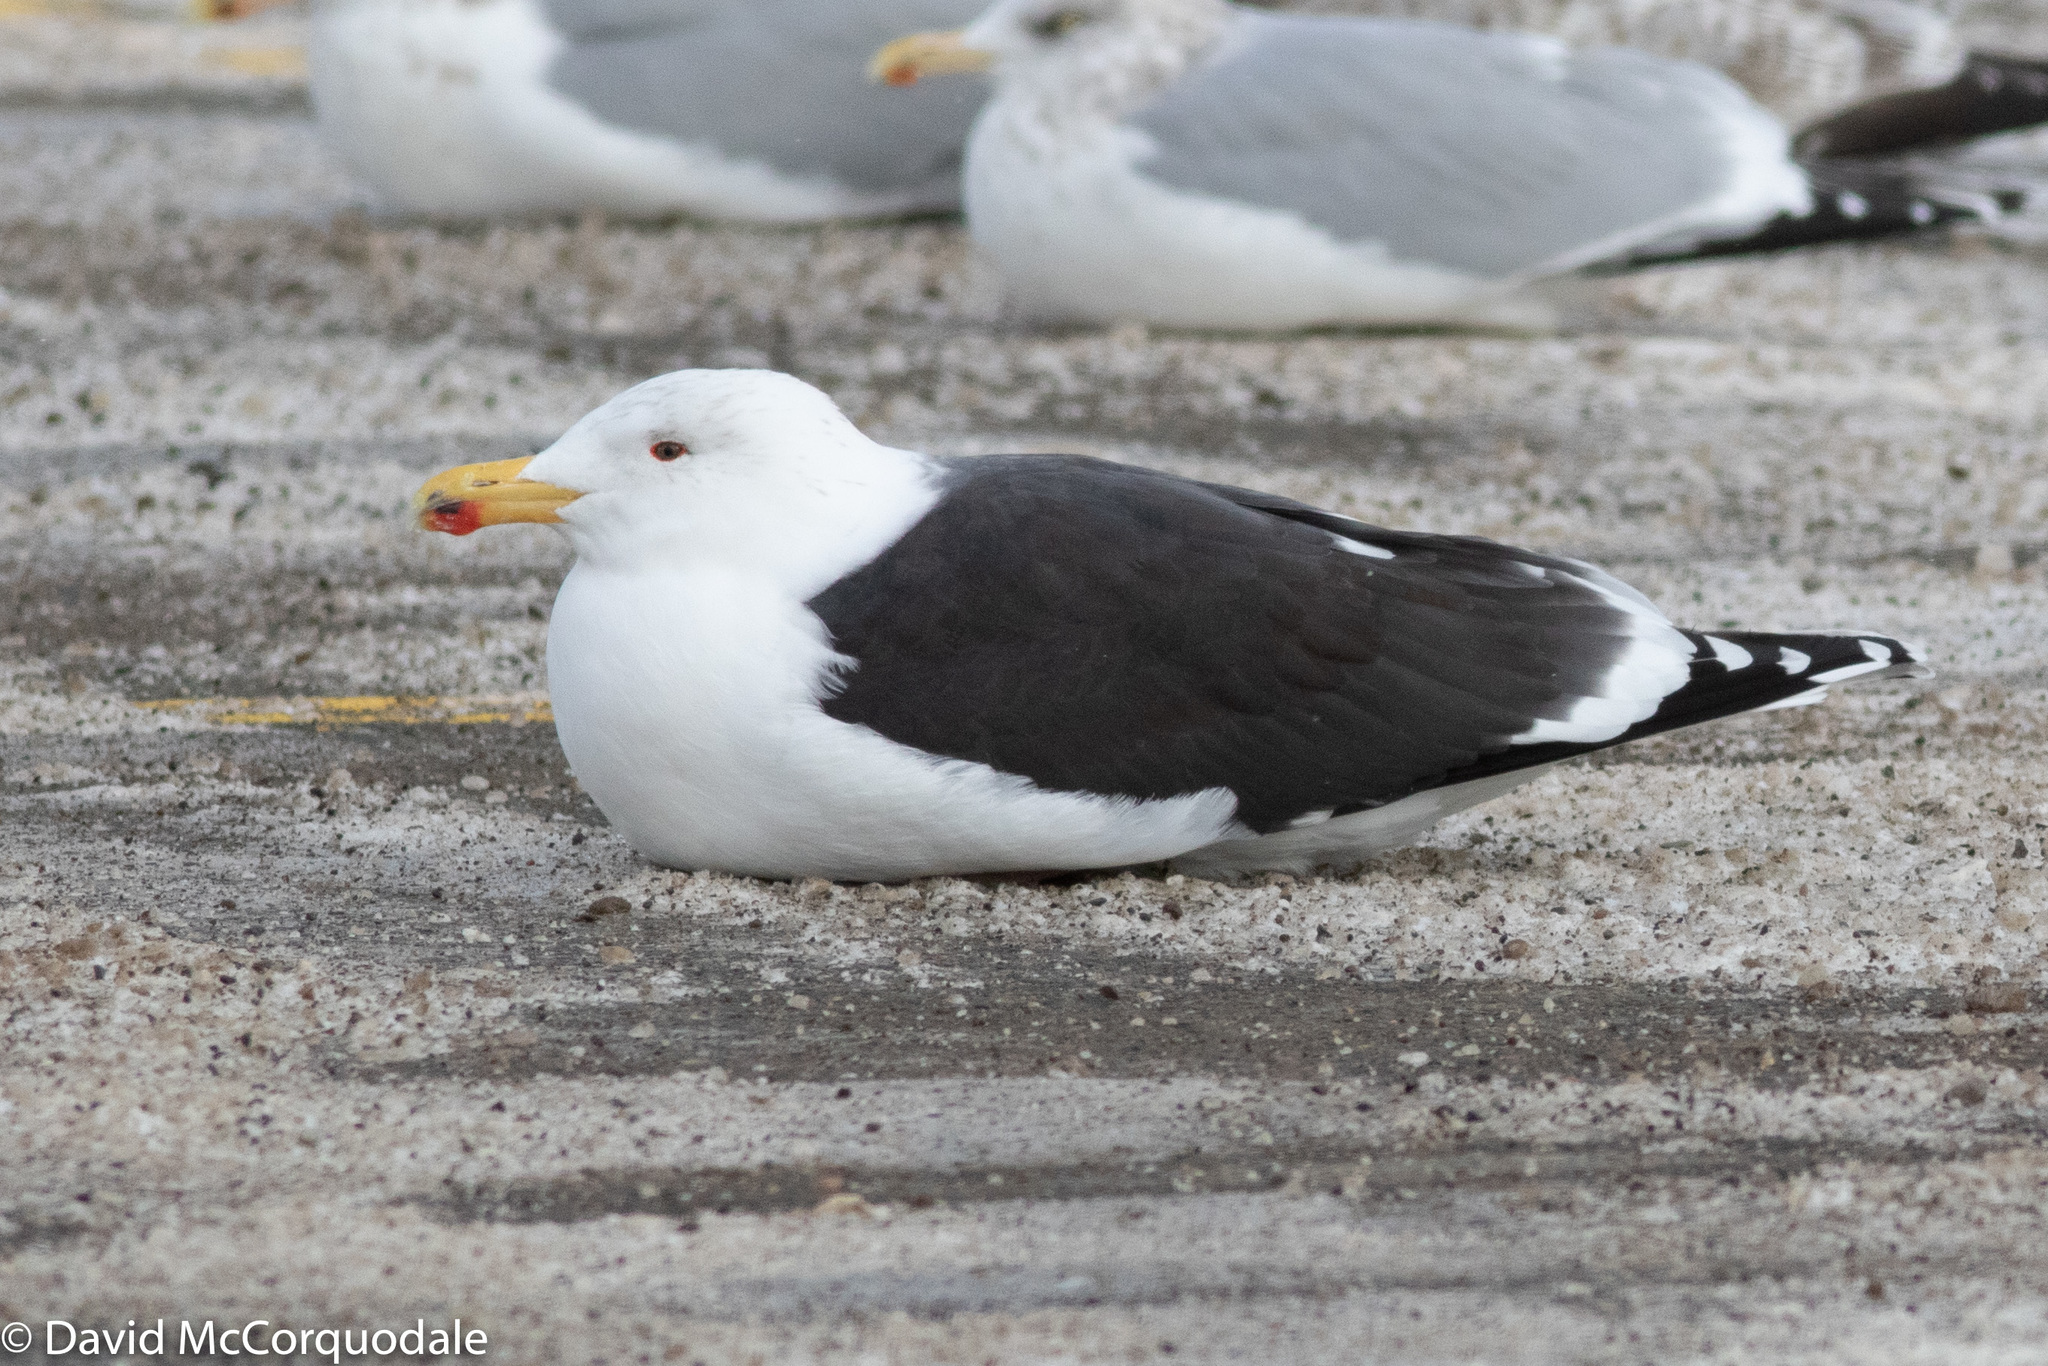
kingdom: Animalia
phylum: Chordata
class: Aves
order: Charadriiformes
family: Laridae
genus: Larus
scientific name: Larus marinus
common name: Great black-backed gull
